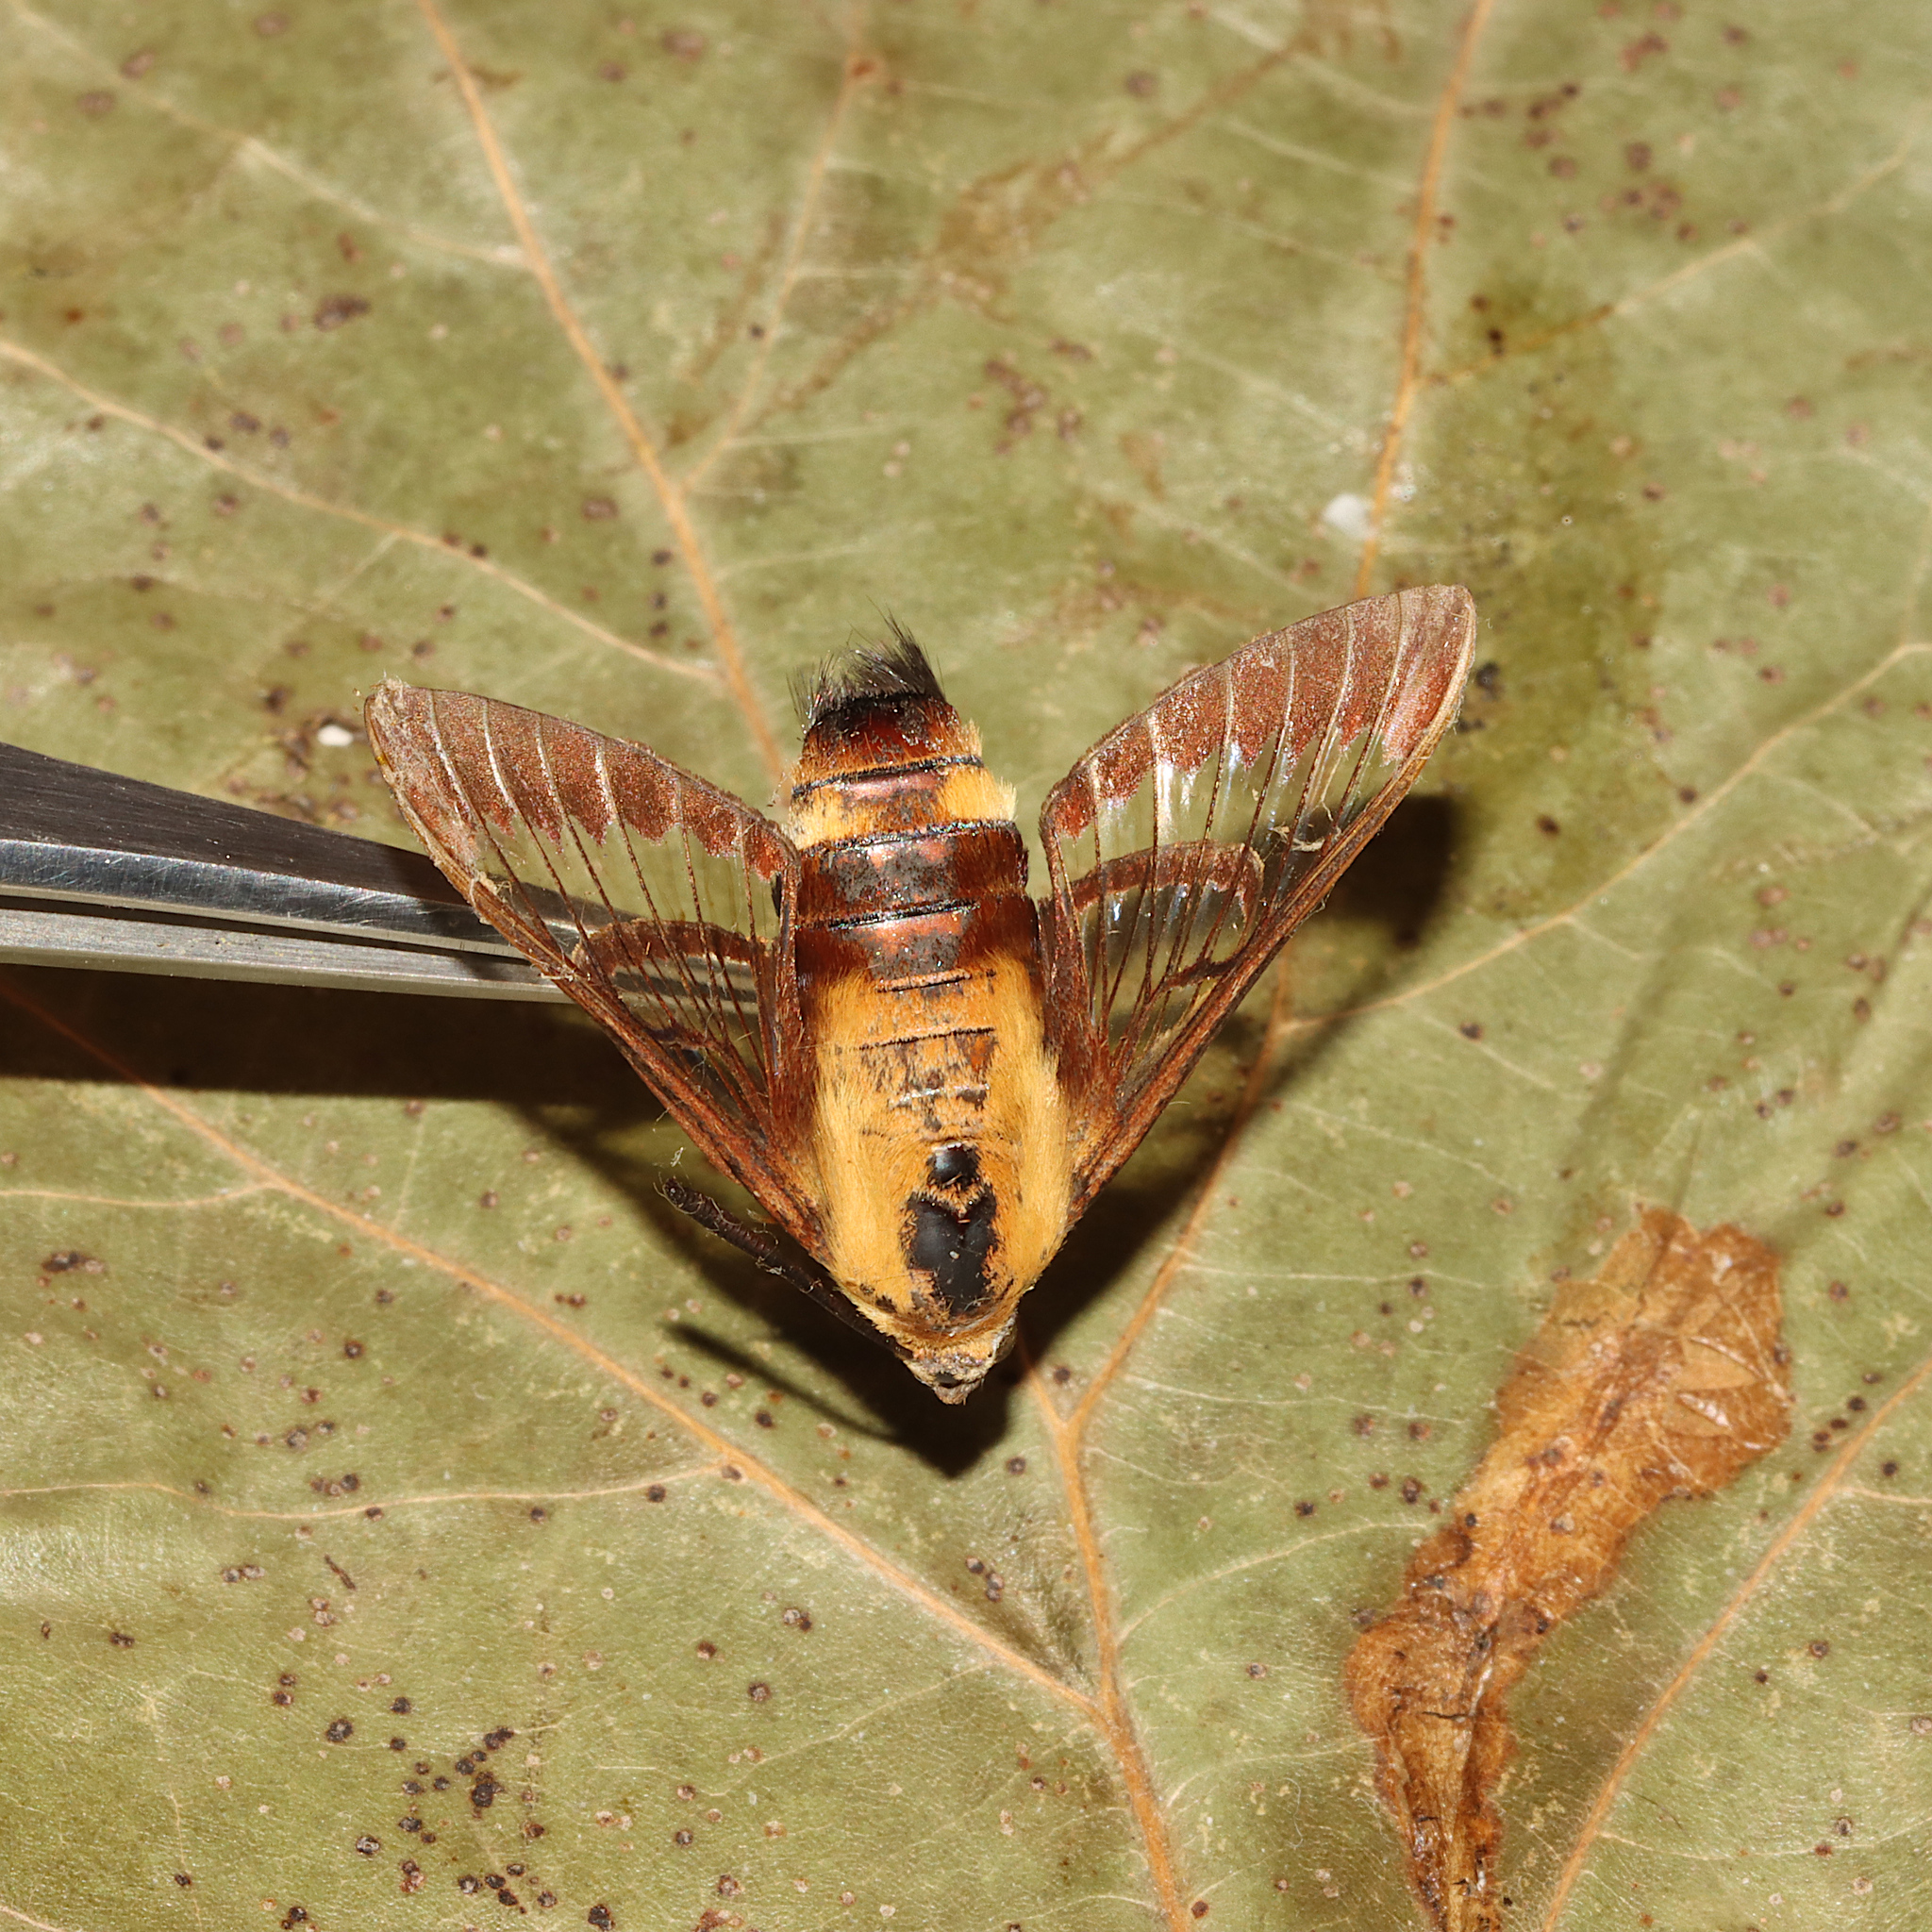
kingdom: Animalia
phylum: Arthropoda
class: Insecta
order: Lepidoptera
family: Sphingidae
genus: Hemaris
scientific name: Hemaris diffinis
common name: Bumblebee moth
